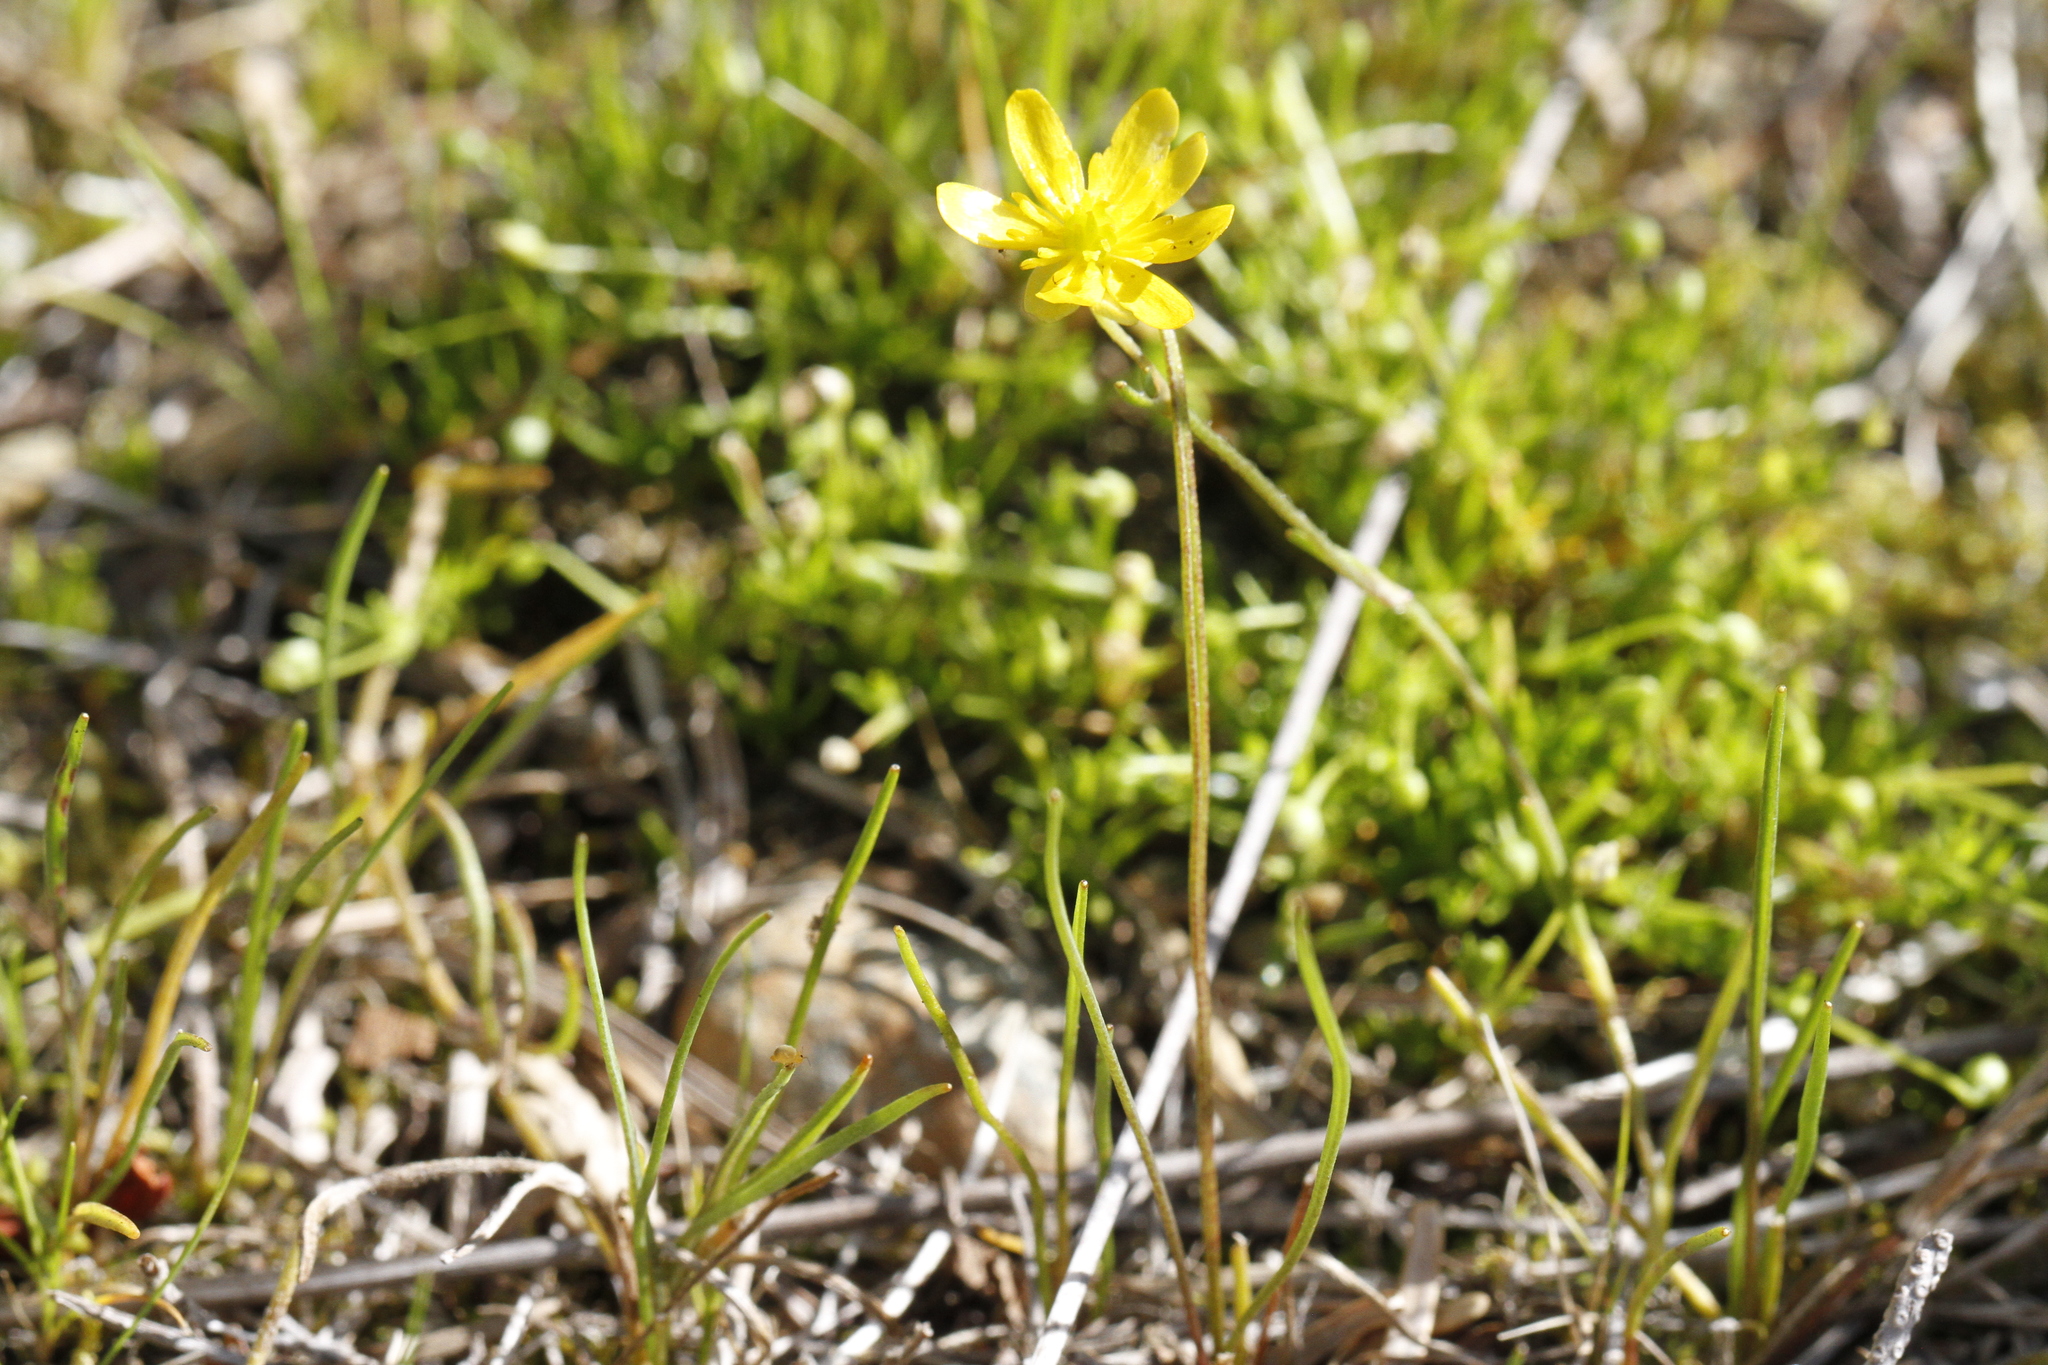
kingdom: Plantae
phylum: Tracheophyta
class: Magnoliopsida
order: Ranunculales
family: Ranunculaceae
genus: Ranunculus
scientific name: Ranunculus flammula
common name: Lesser spearwort
